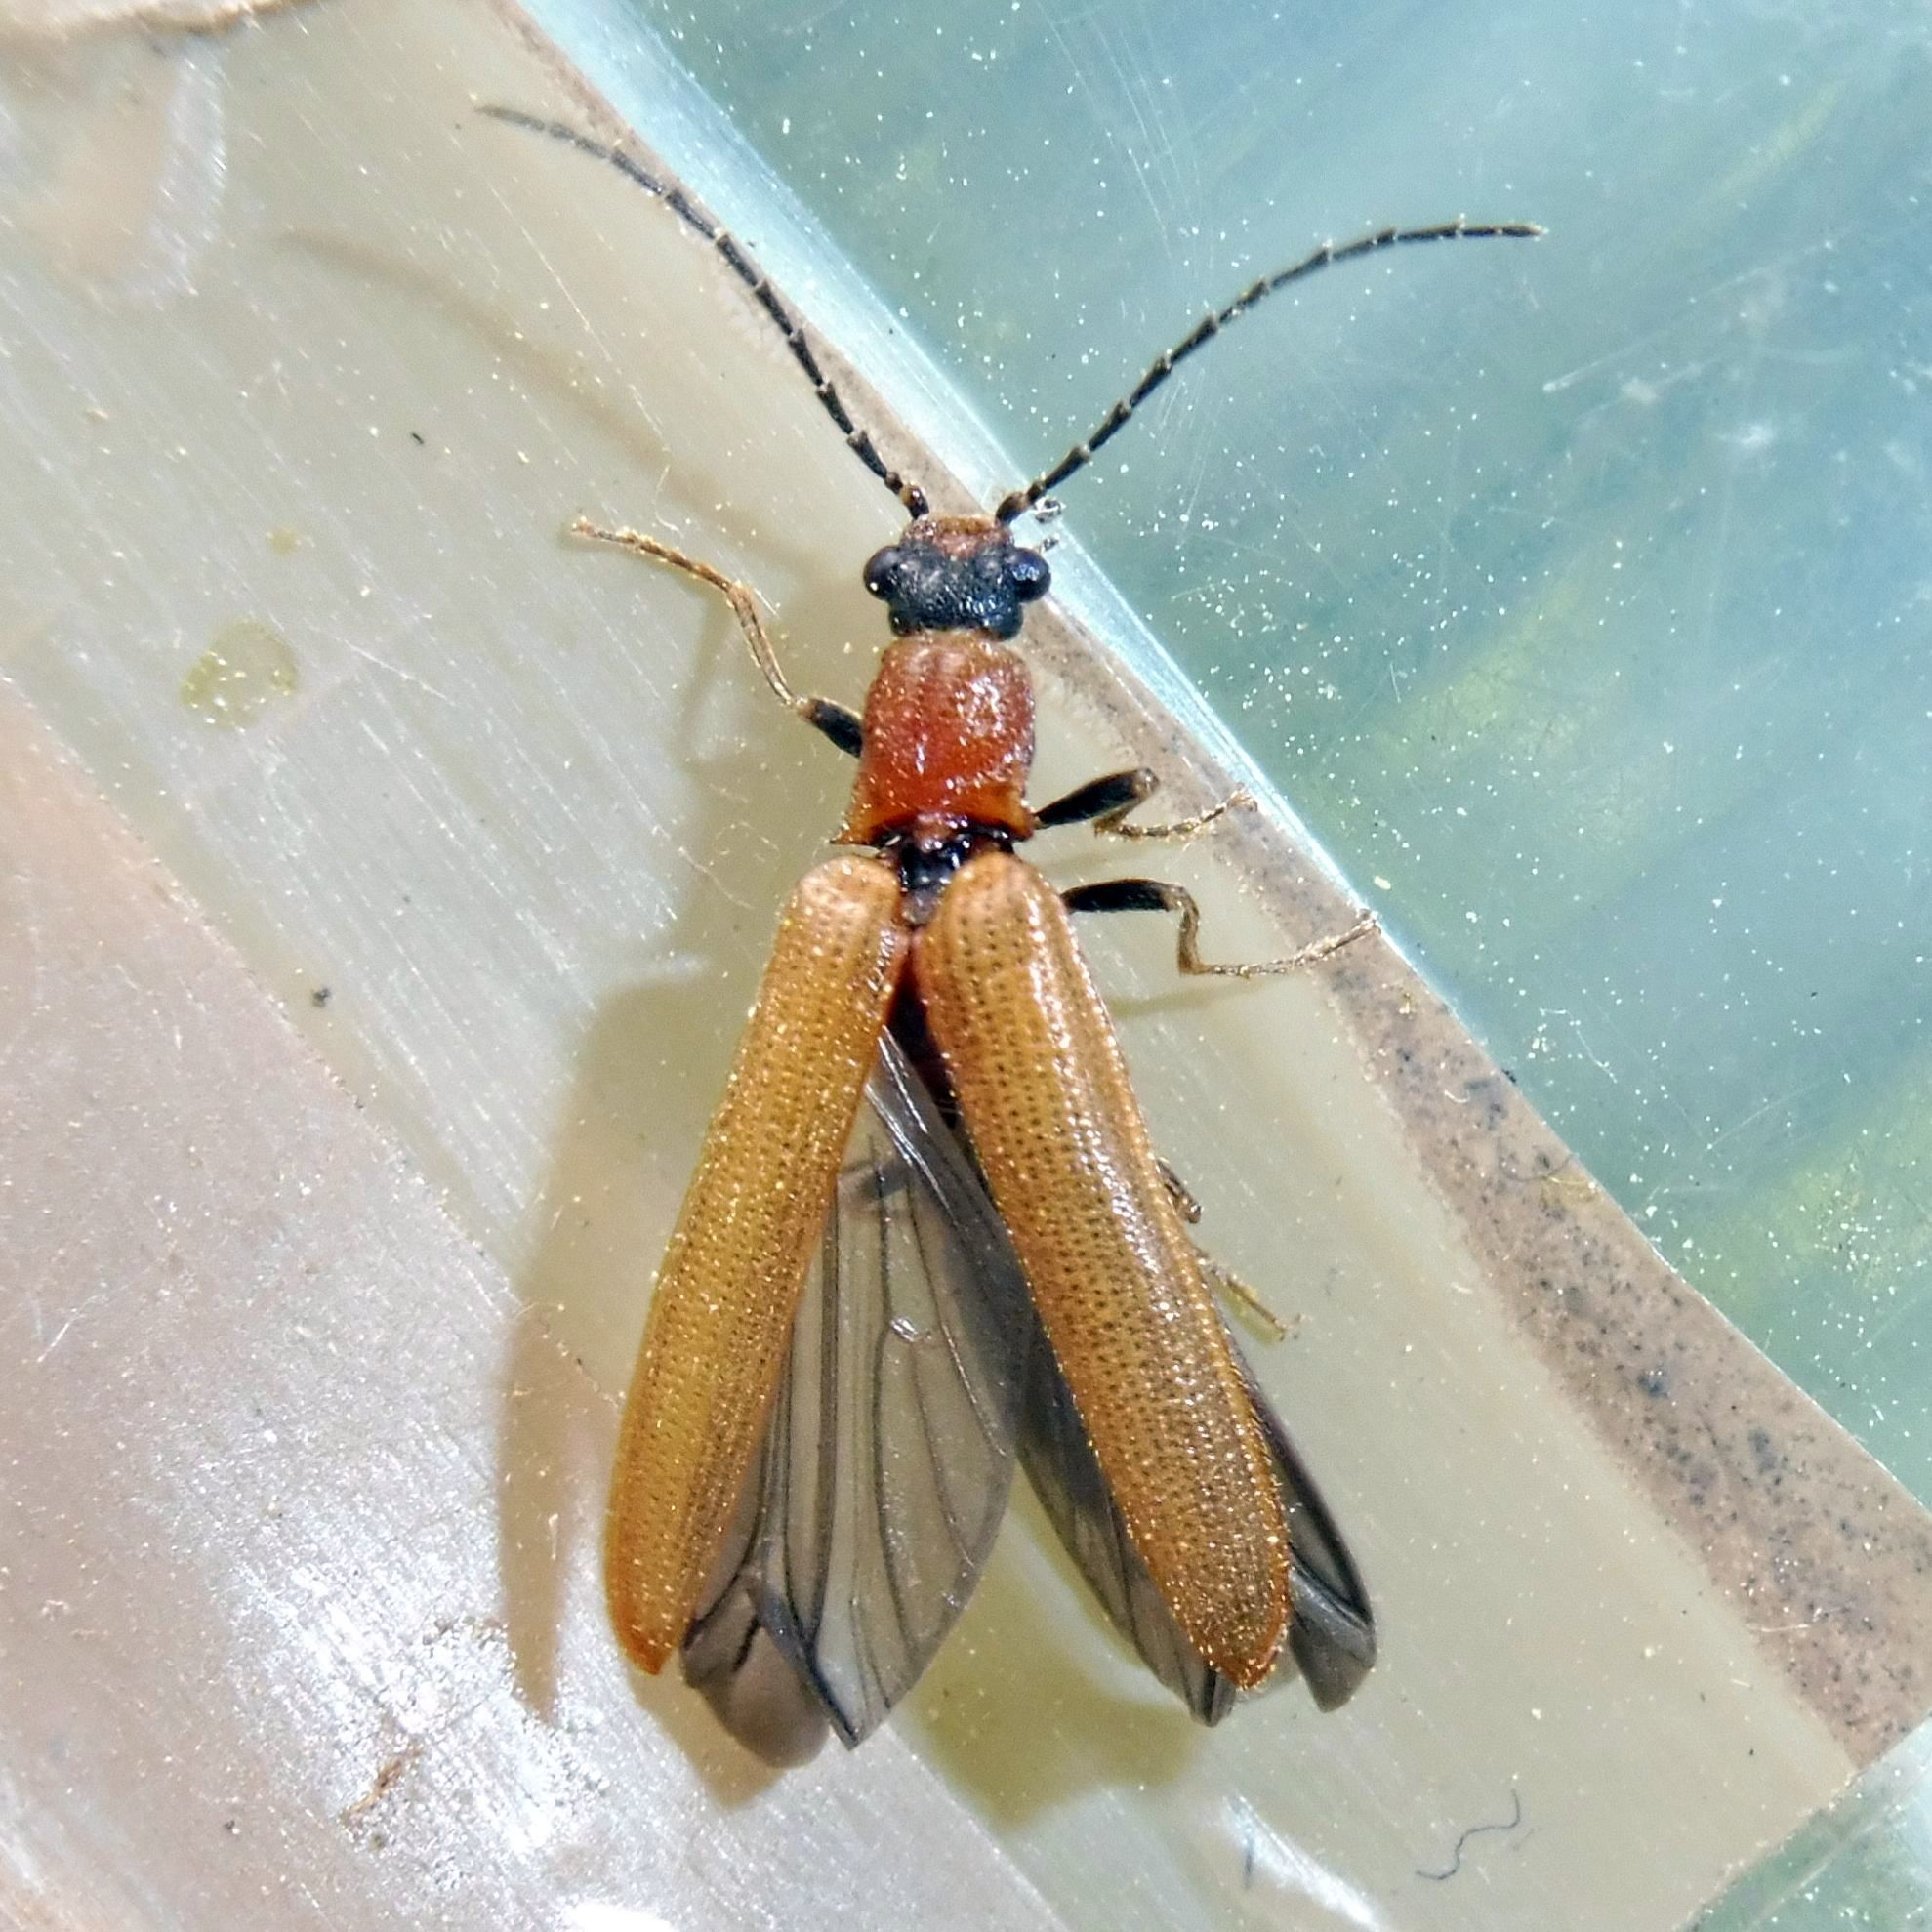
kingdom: Animalia
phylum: Arthropoda
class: Insecta
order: Coleoptera
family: Elateridae
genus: Denticollis
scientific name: Denticollis linearis
